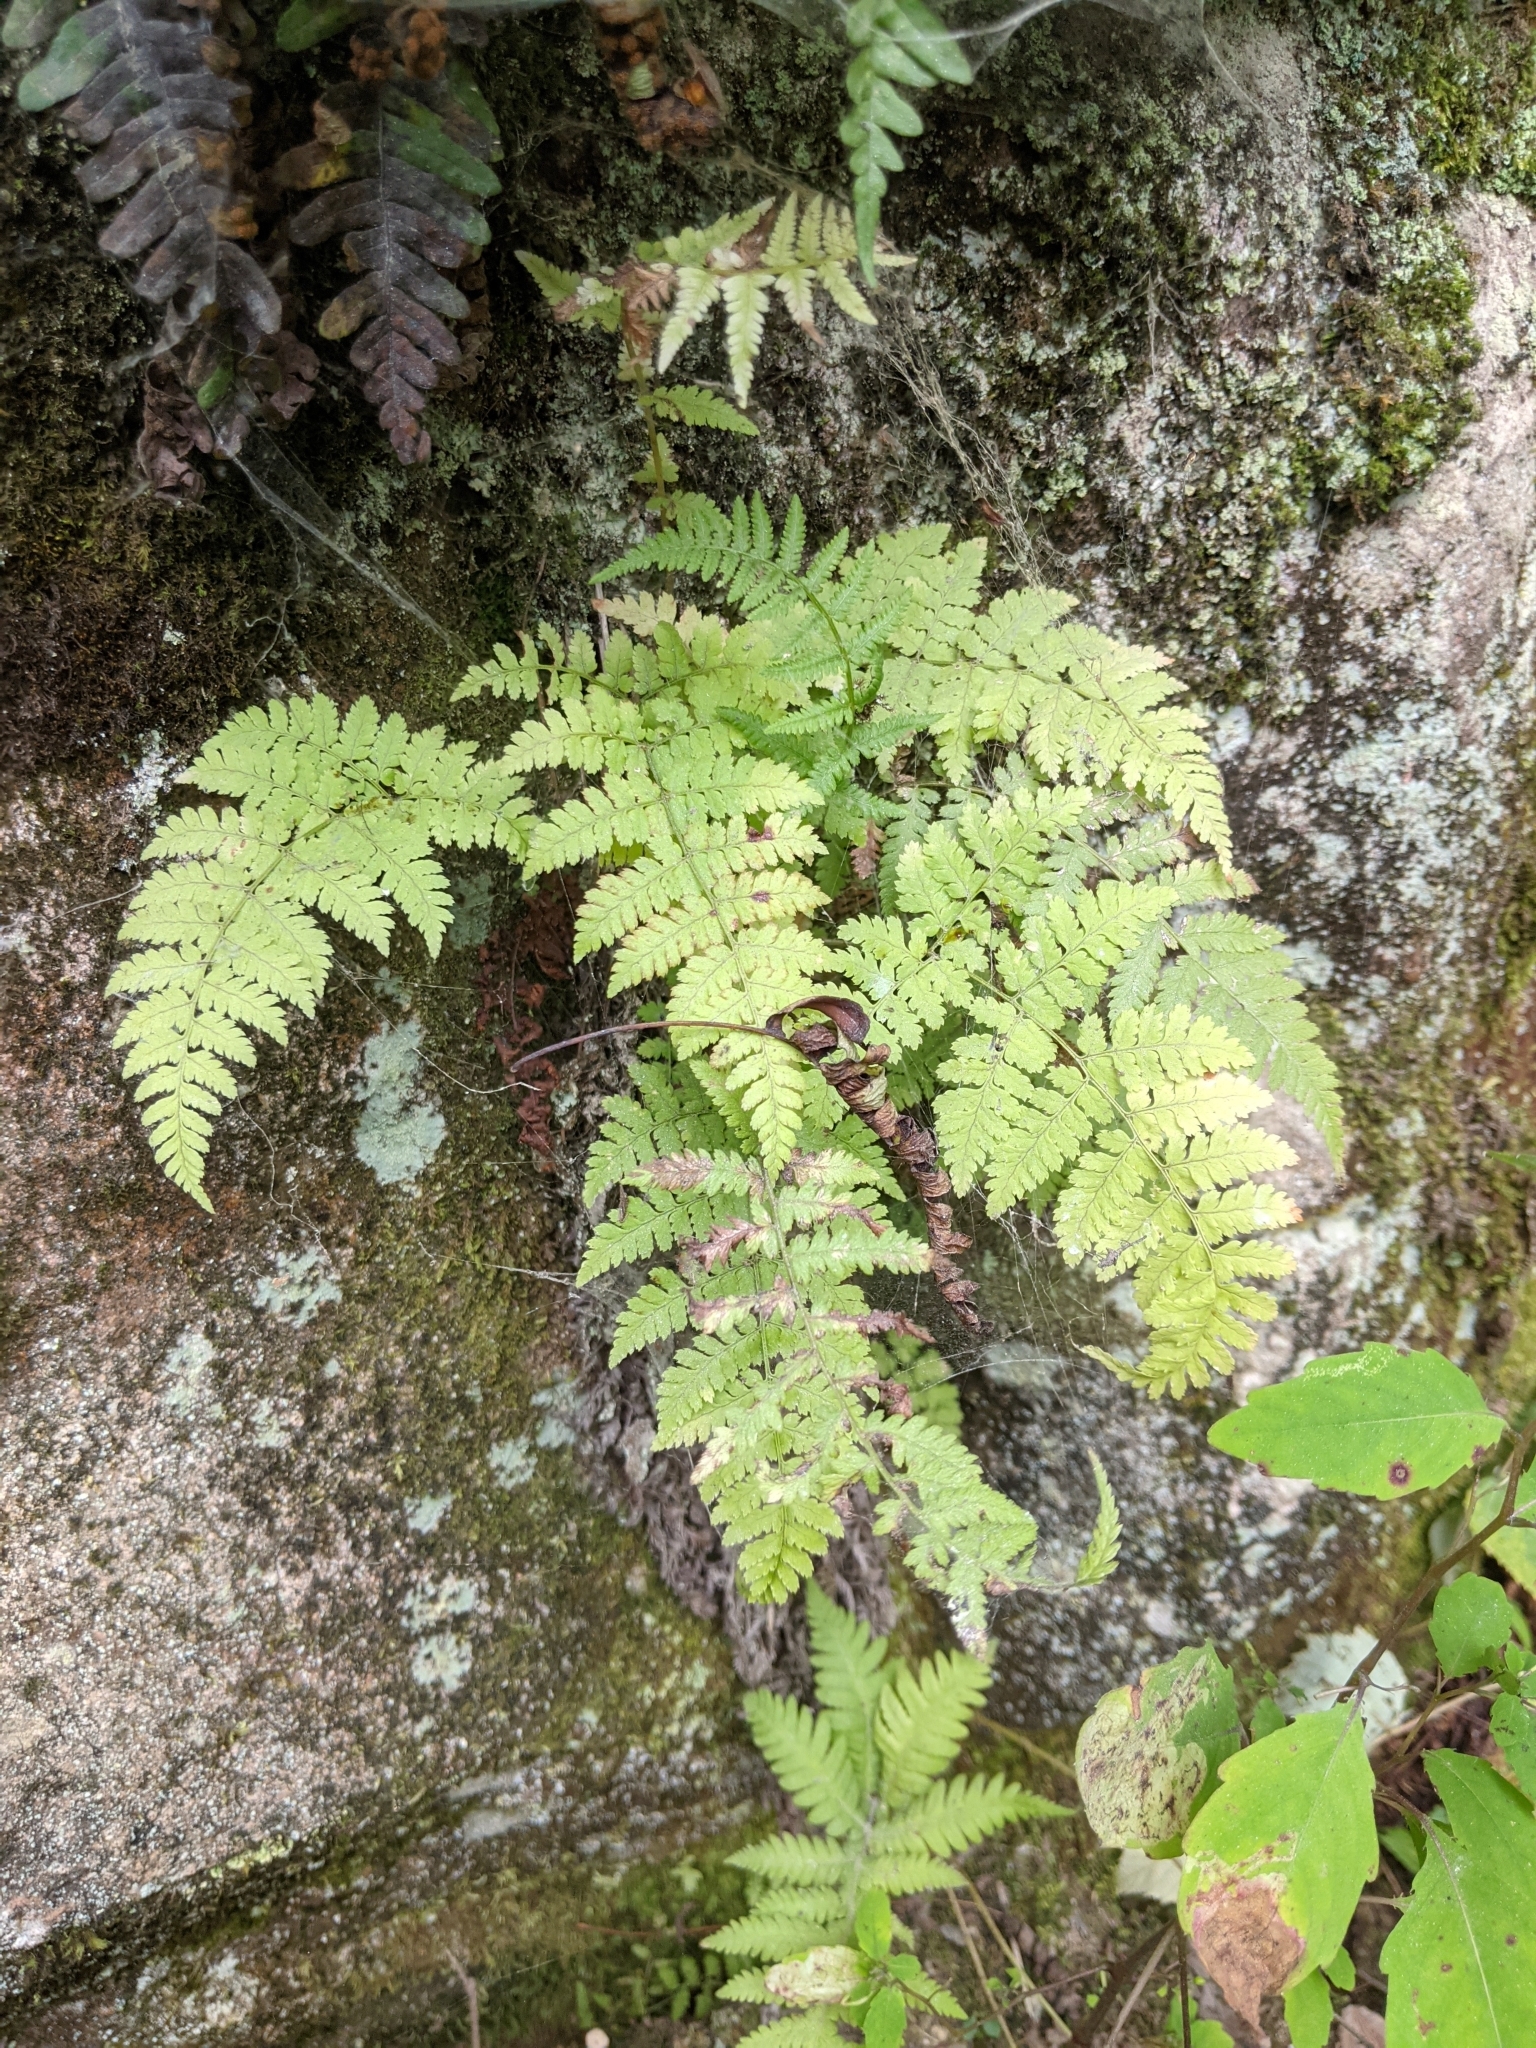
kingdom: Plantae
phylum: Tracheophyta
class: Polypodiopsida
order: Polypodiales
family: Dryopteridaceae
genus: Dryopteris
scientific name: Dryopteris intermedia
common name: Evergreen wood fern
